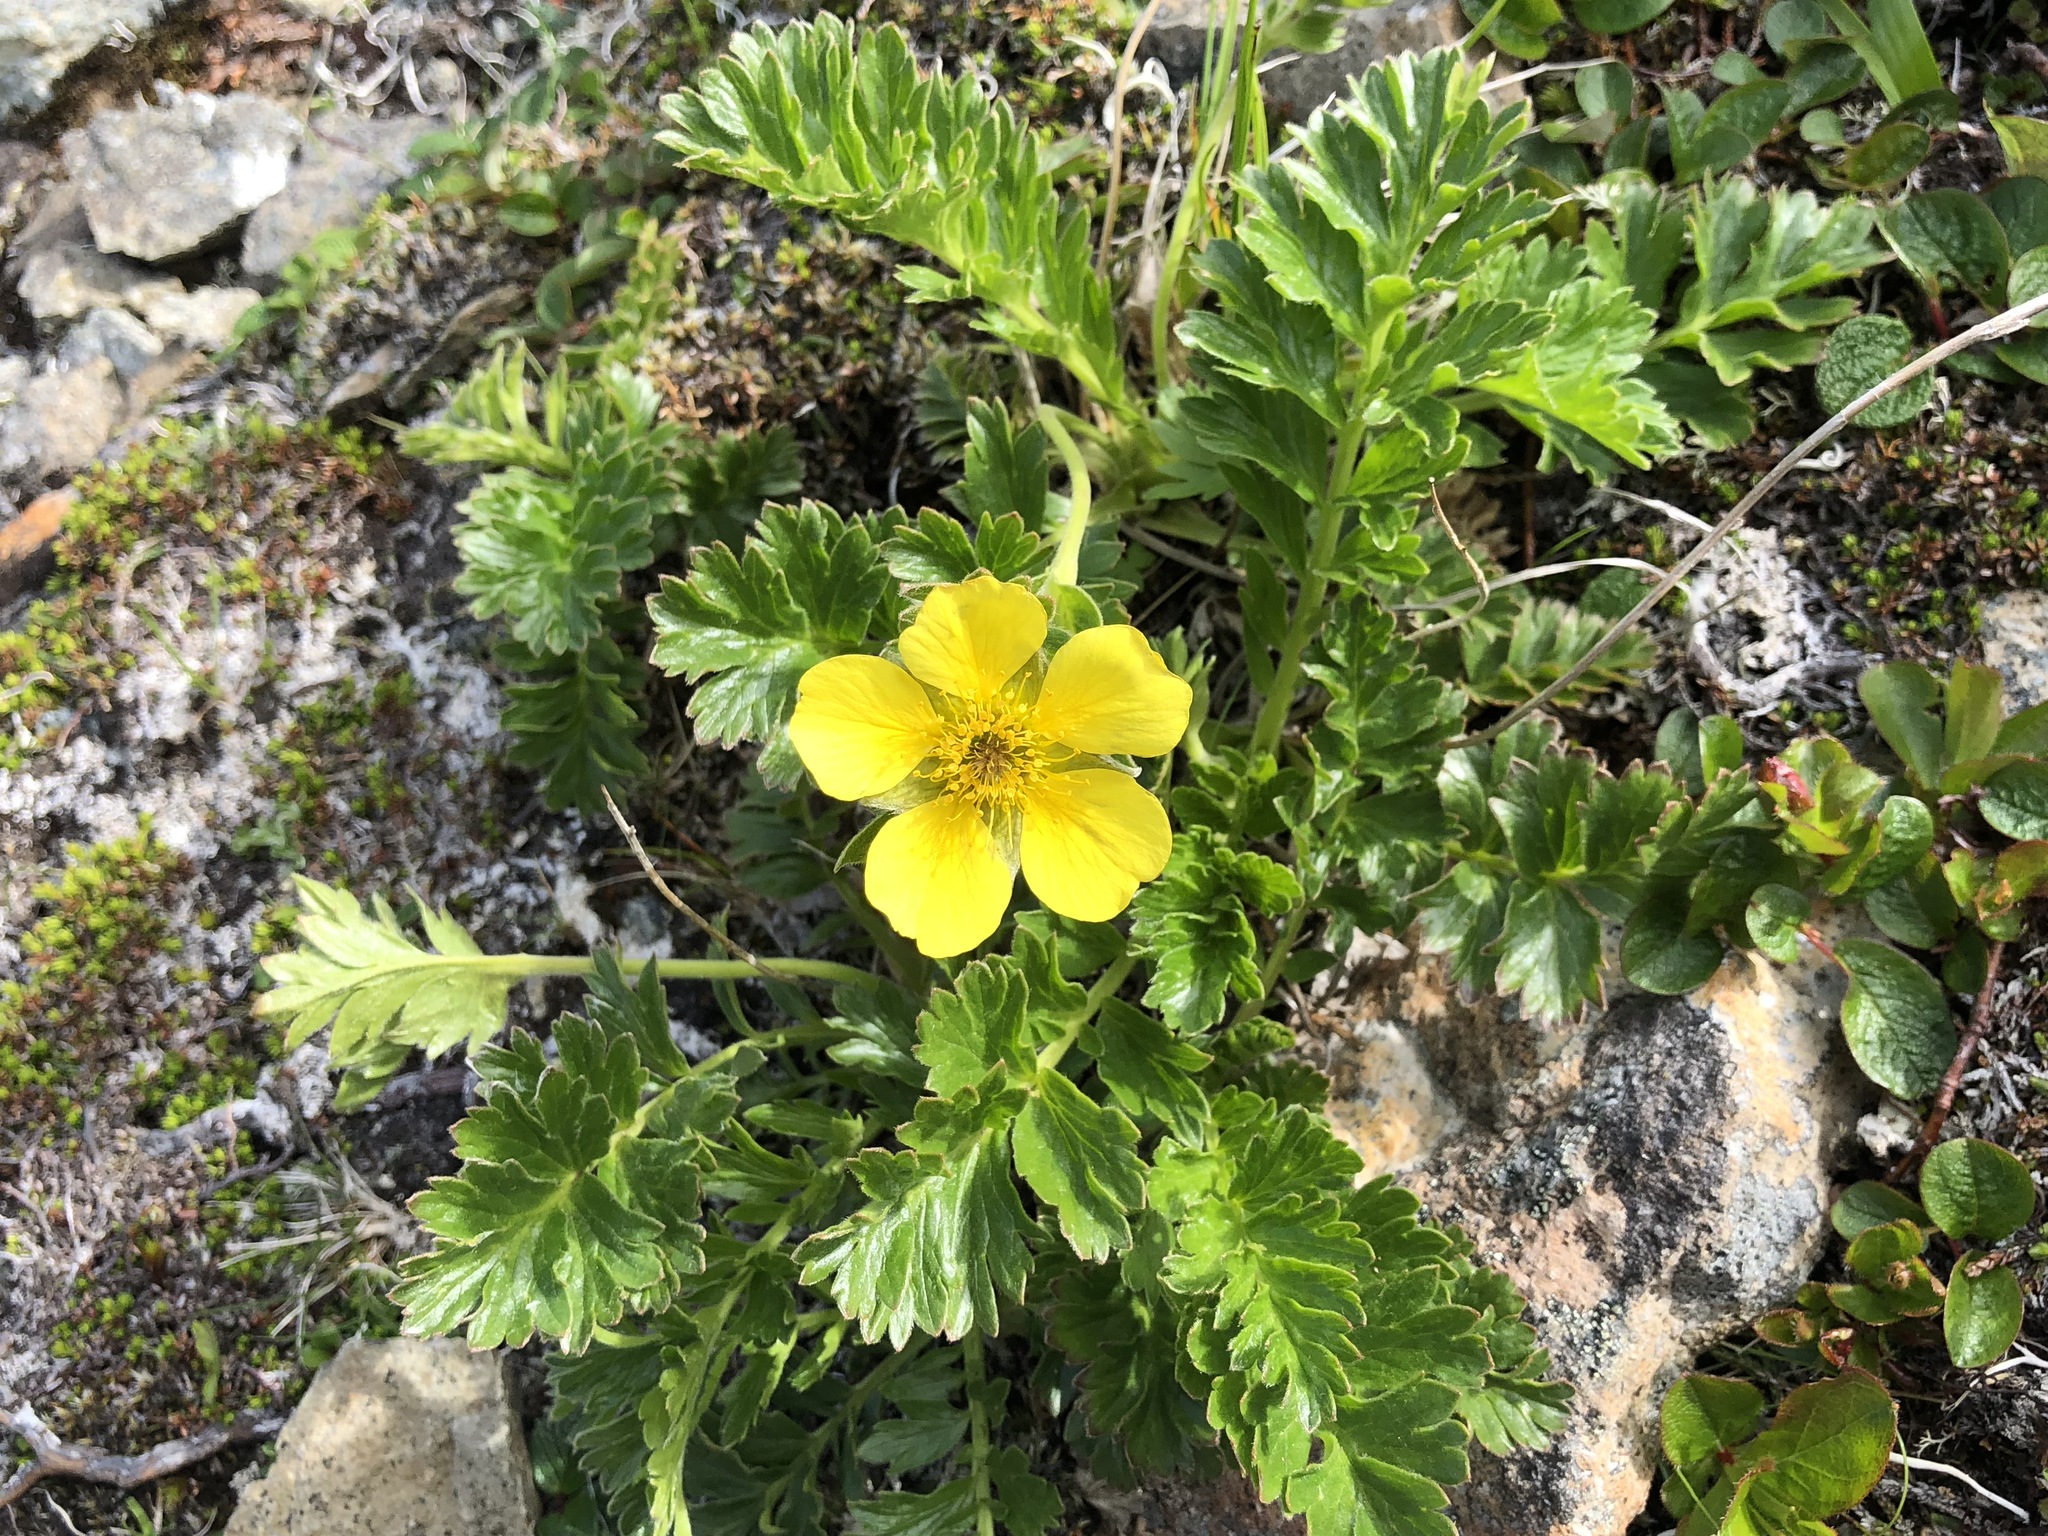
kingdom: Plantae
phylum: Tracheophyta
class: Magnoliopsida
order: Rosales
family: Rosaceae
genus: Geum
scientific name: Geum macranthum
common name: Large-flowered avens
